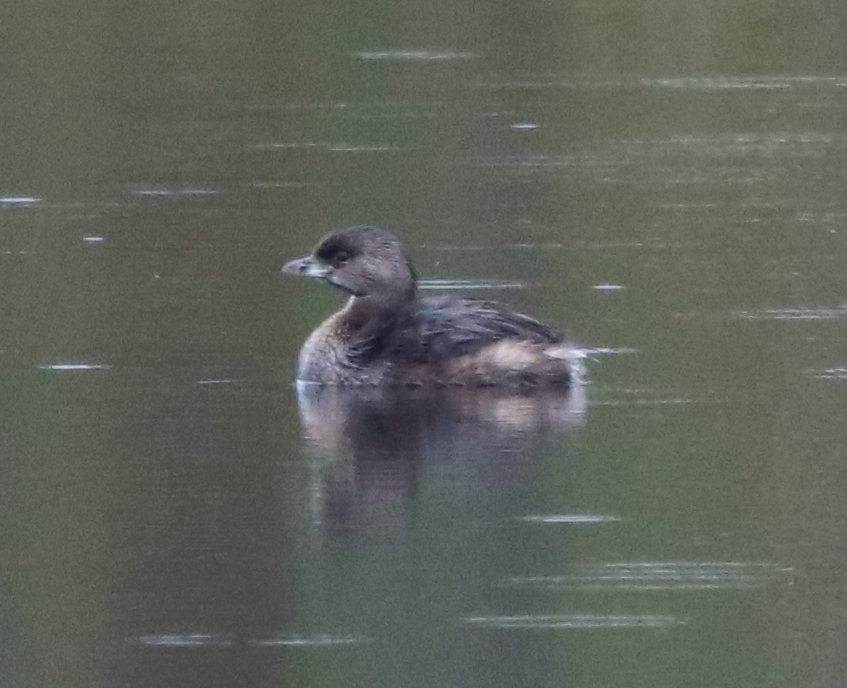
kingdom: Animalia
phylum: Chordata
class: Aves
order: Podicipediformes
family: Podicipedidae
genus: Podilymbus
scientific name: Podilymbus podiceps
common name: Pied-billed grebe
